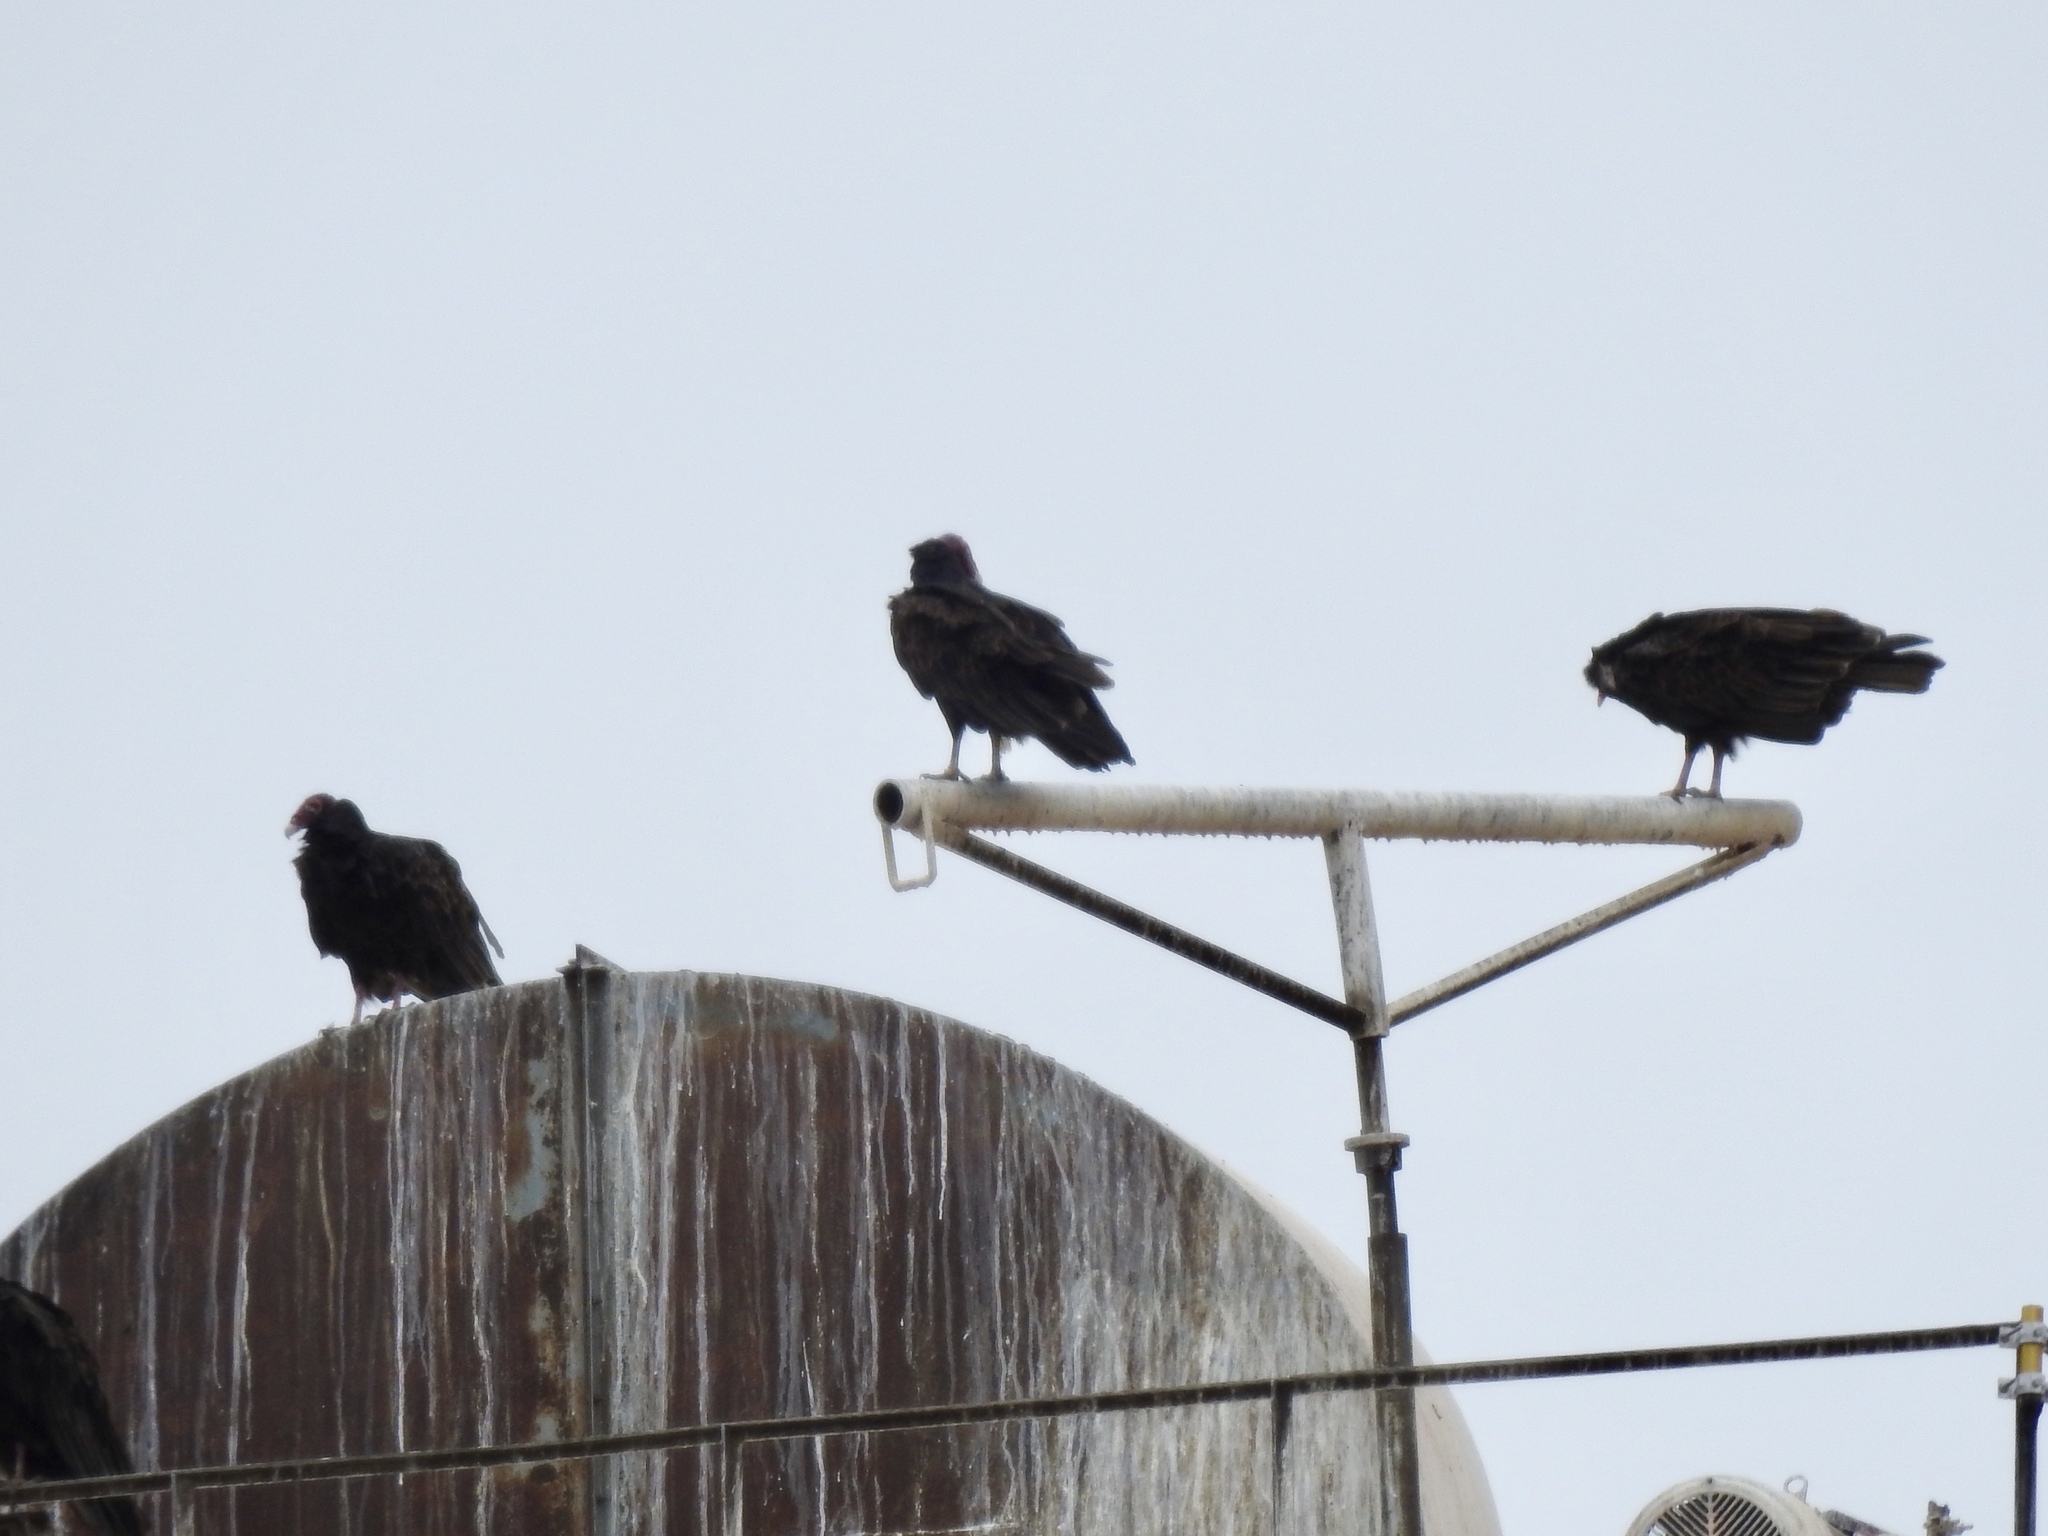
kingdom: Animalia
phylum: Chordata
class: Aves
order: Accipitriformes
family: Cathartidae
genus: Cathartes
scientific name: Cathartes aura
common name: Turkey vulture
